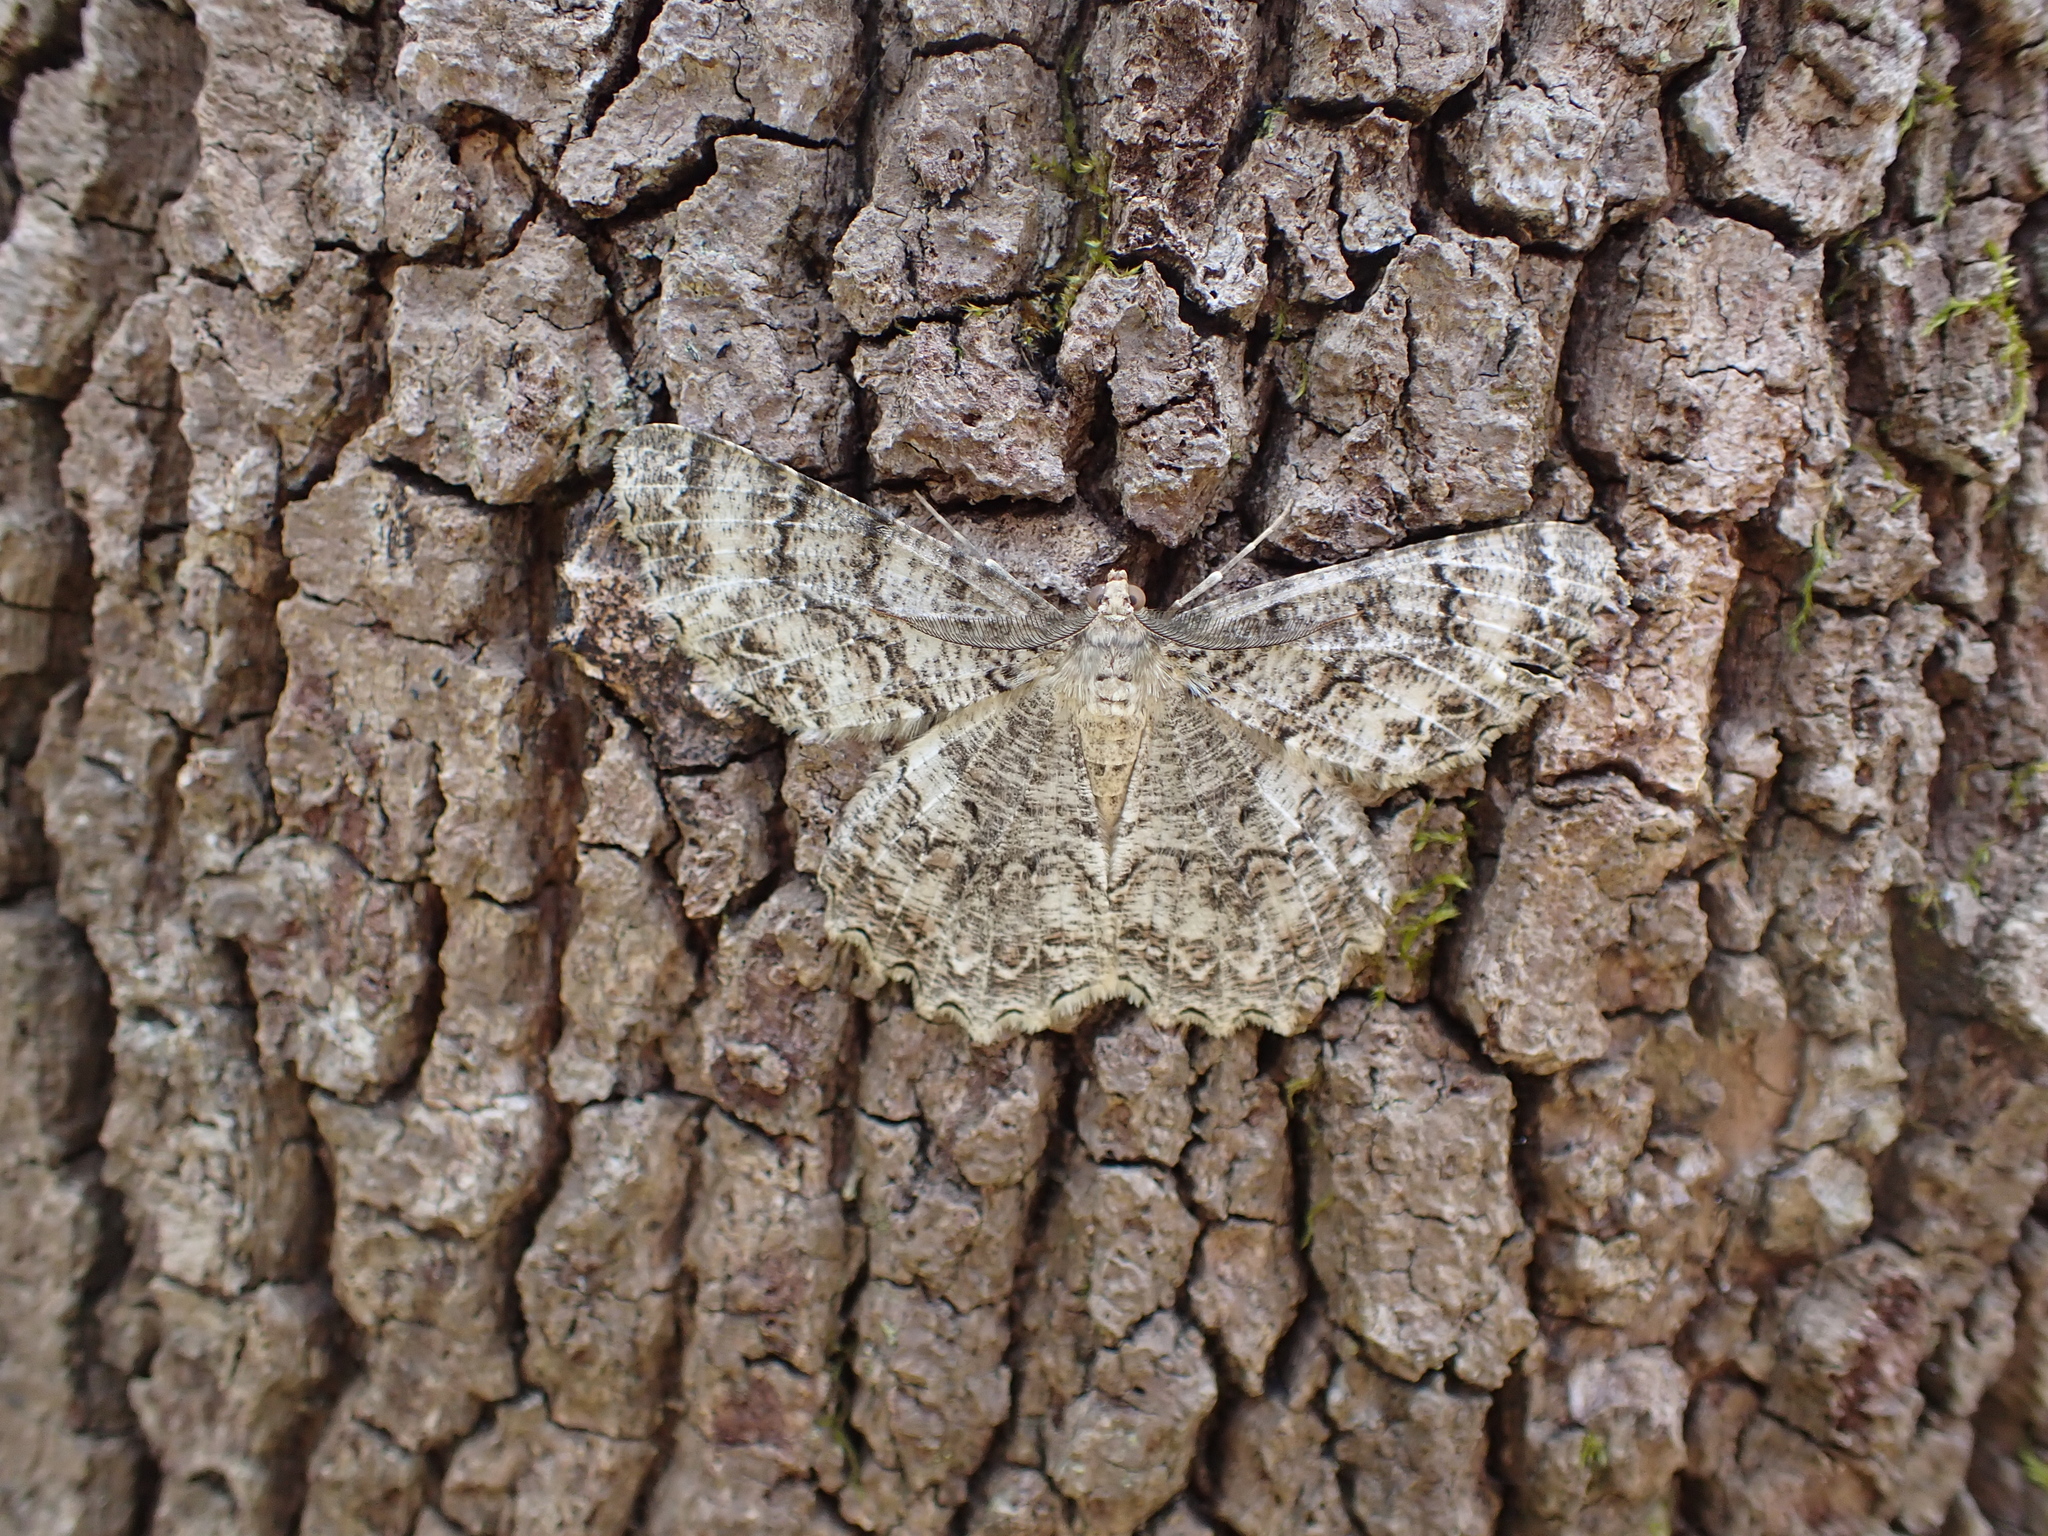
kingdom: Animalia
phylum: Arthropoda
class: Insecta
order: Lepidoptera
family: Geometridae
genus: Epimecis
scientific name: Epimecis hortaria
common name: Tulip-tree beauty
